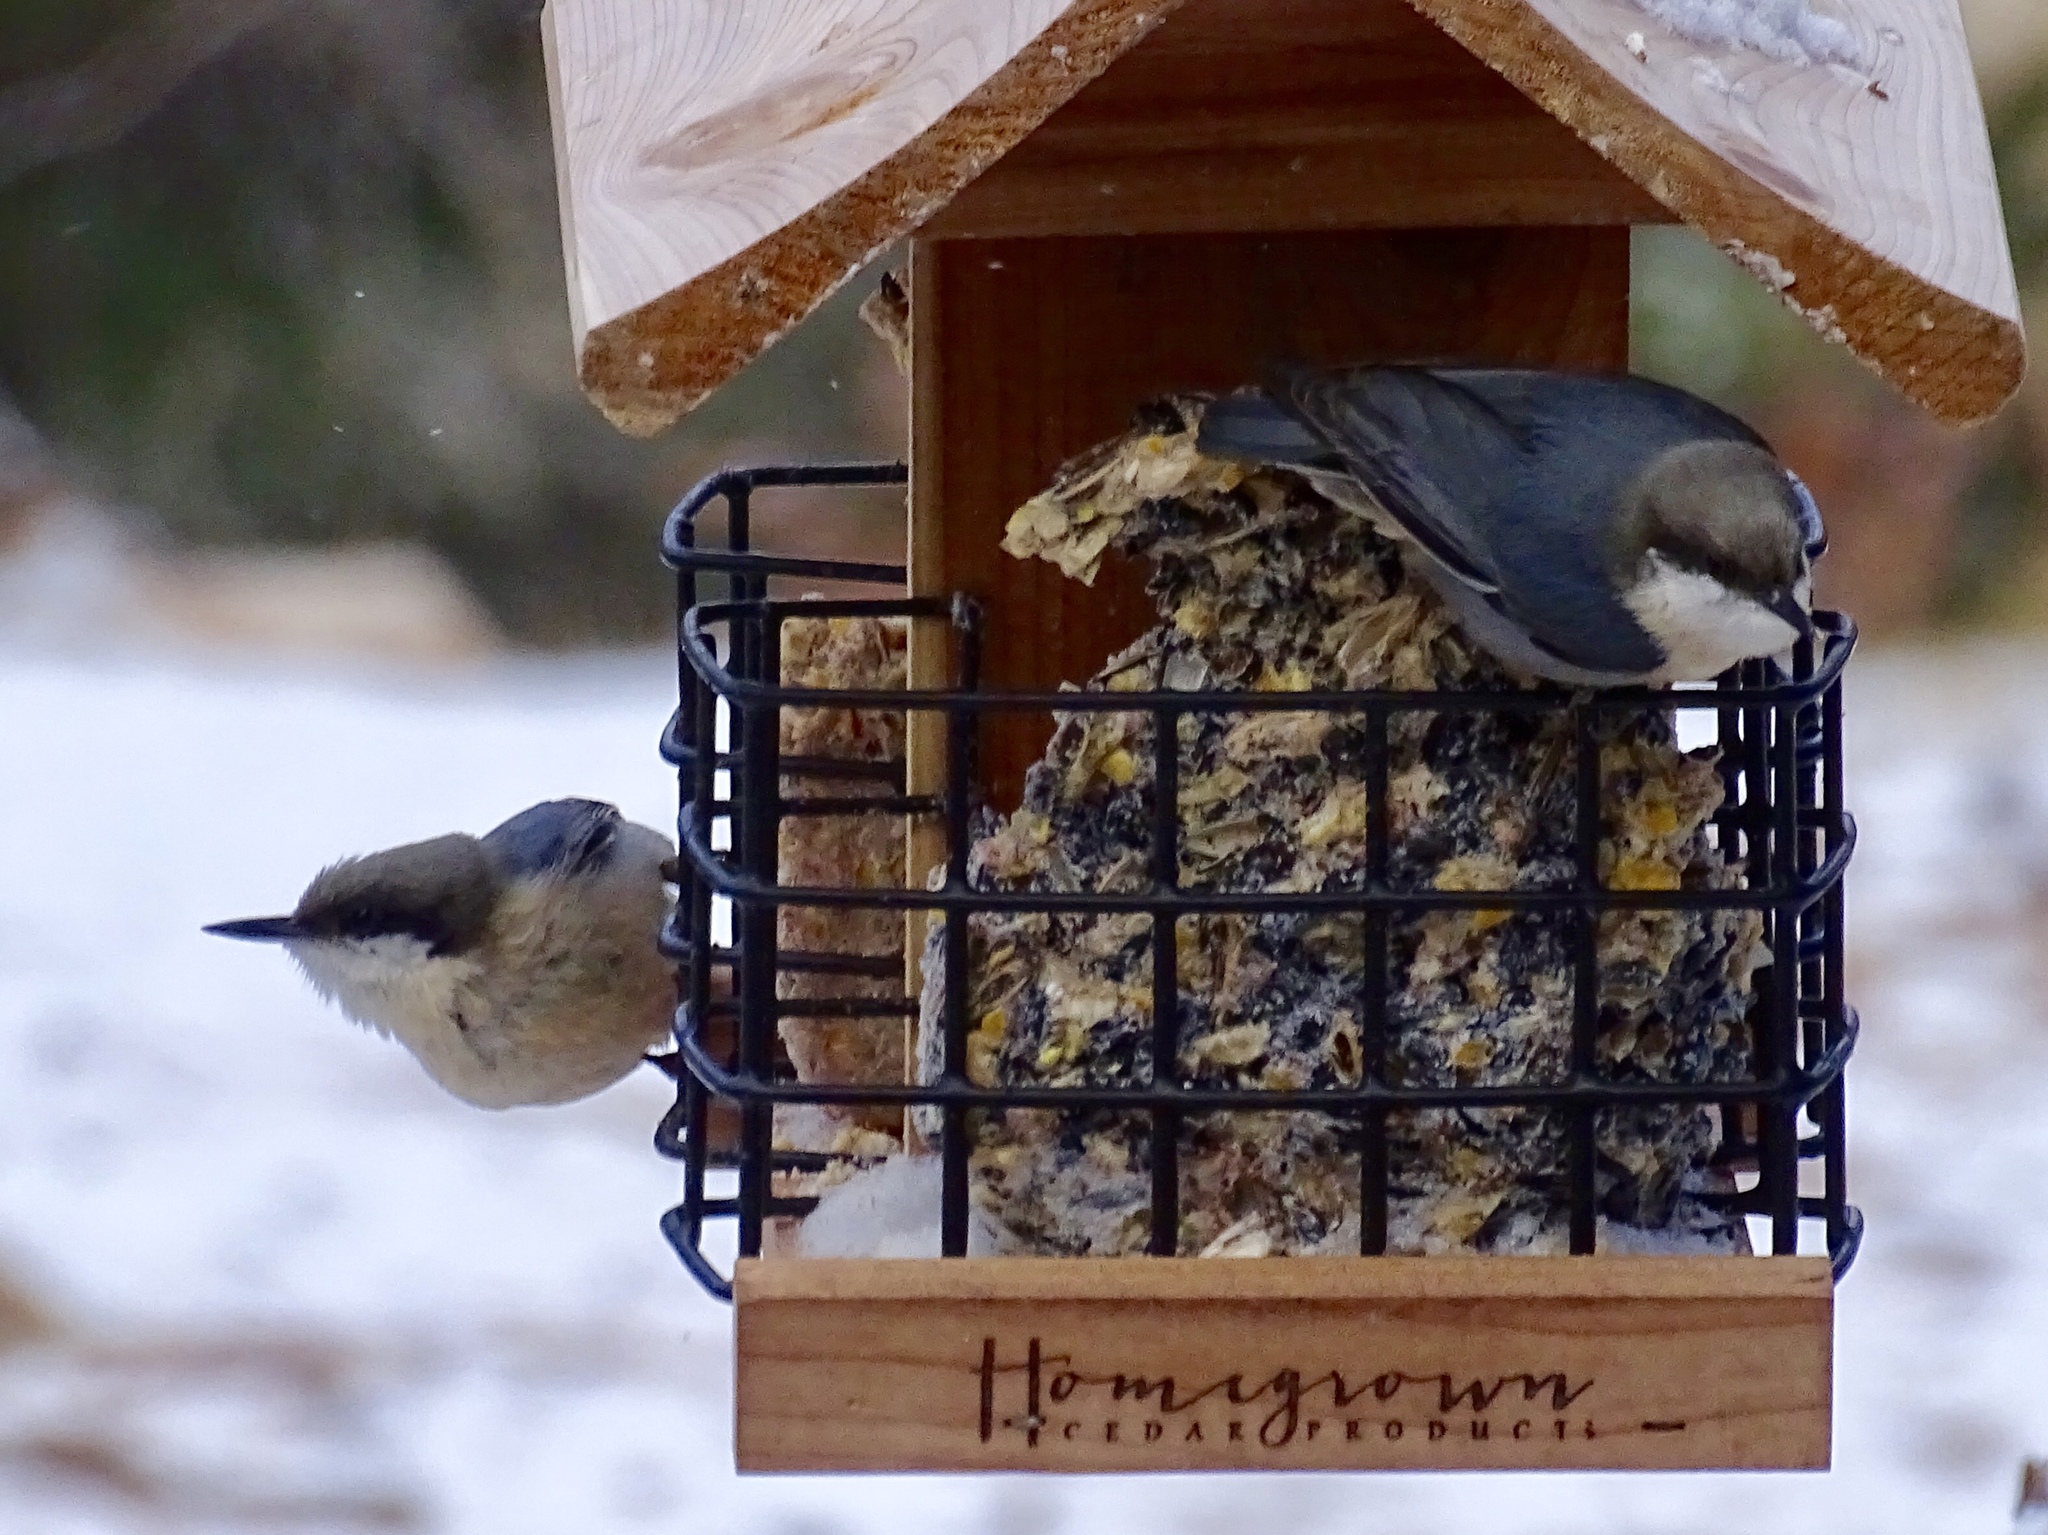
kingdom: Animalia
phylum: Chordata
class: Aves
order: Passeriformes
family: Sittidae
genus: Sitta
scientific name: Sitta pygmaea
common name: Pygmy nuthatch
